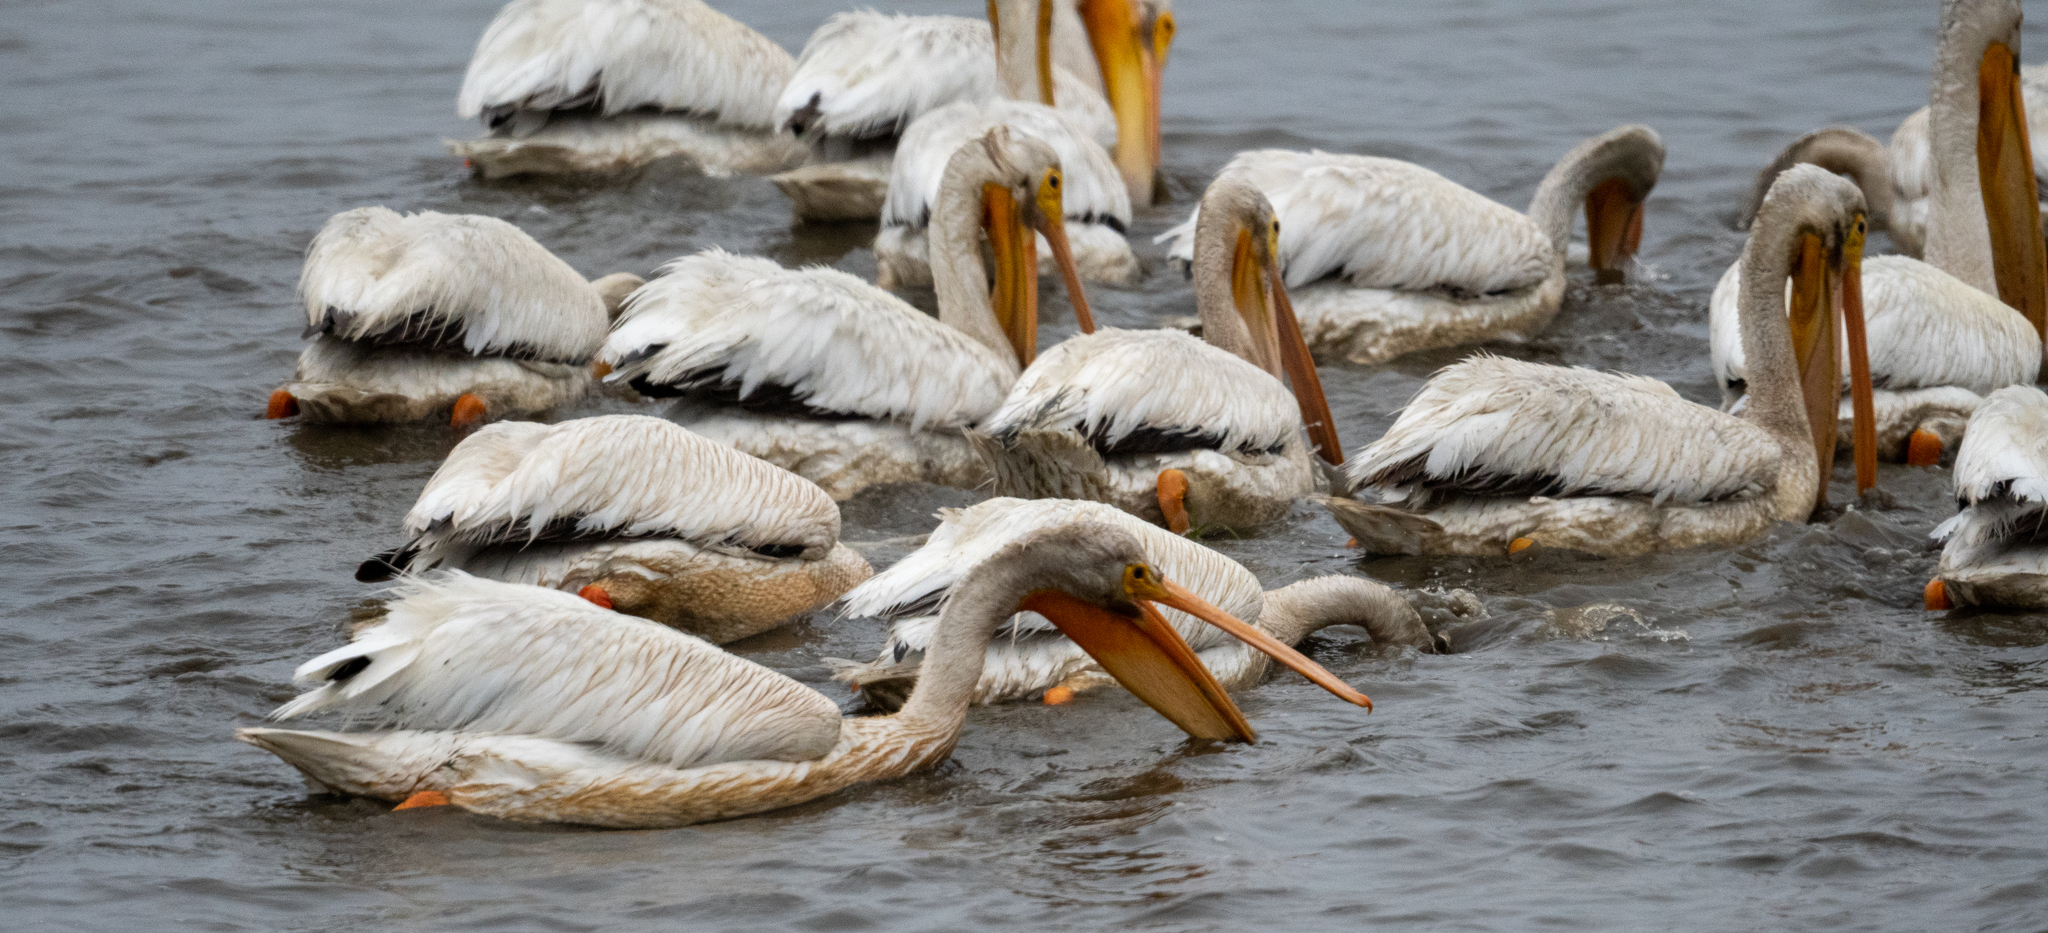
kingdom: Animalia
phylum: Chordata
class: Aves
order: Pelecaniformes
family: Pelecanidae
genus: Pelecanus
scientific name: Pelecanus erythrorhynchos
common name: American white pelican
